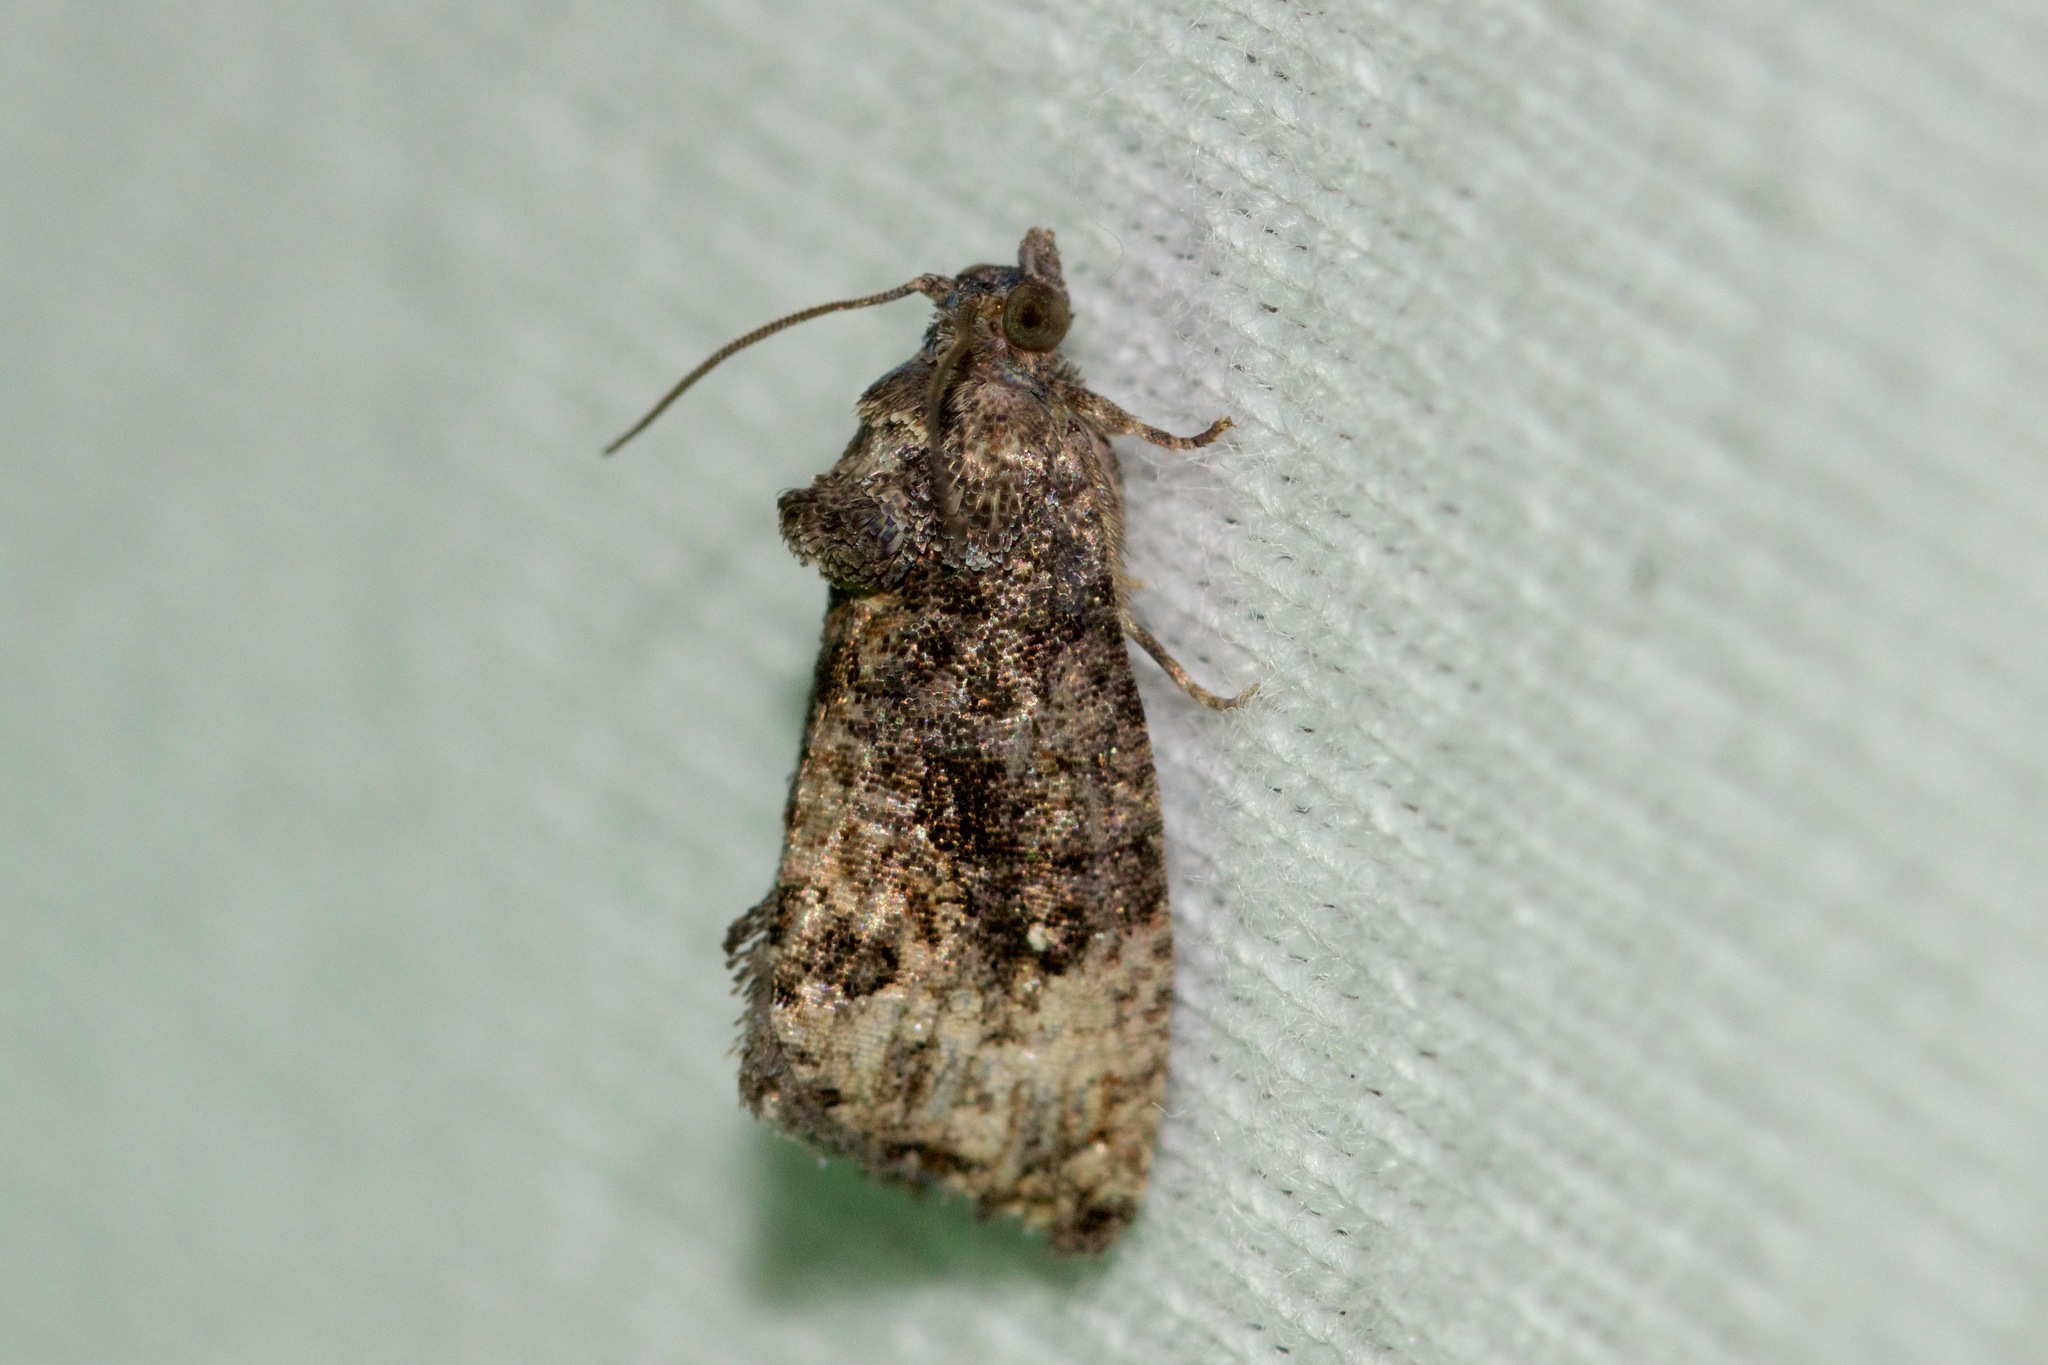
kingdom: Animalia
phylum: Arthropoda
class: Insecta
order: Lepidoptera
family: Tortricidae
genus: Gymnandrosoma
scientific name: Gymnandrosoma punctidiscanum
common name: Dotted ecdytolopha moth
